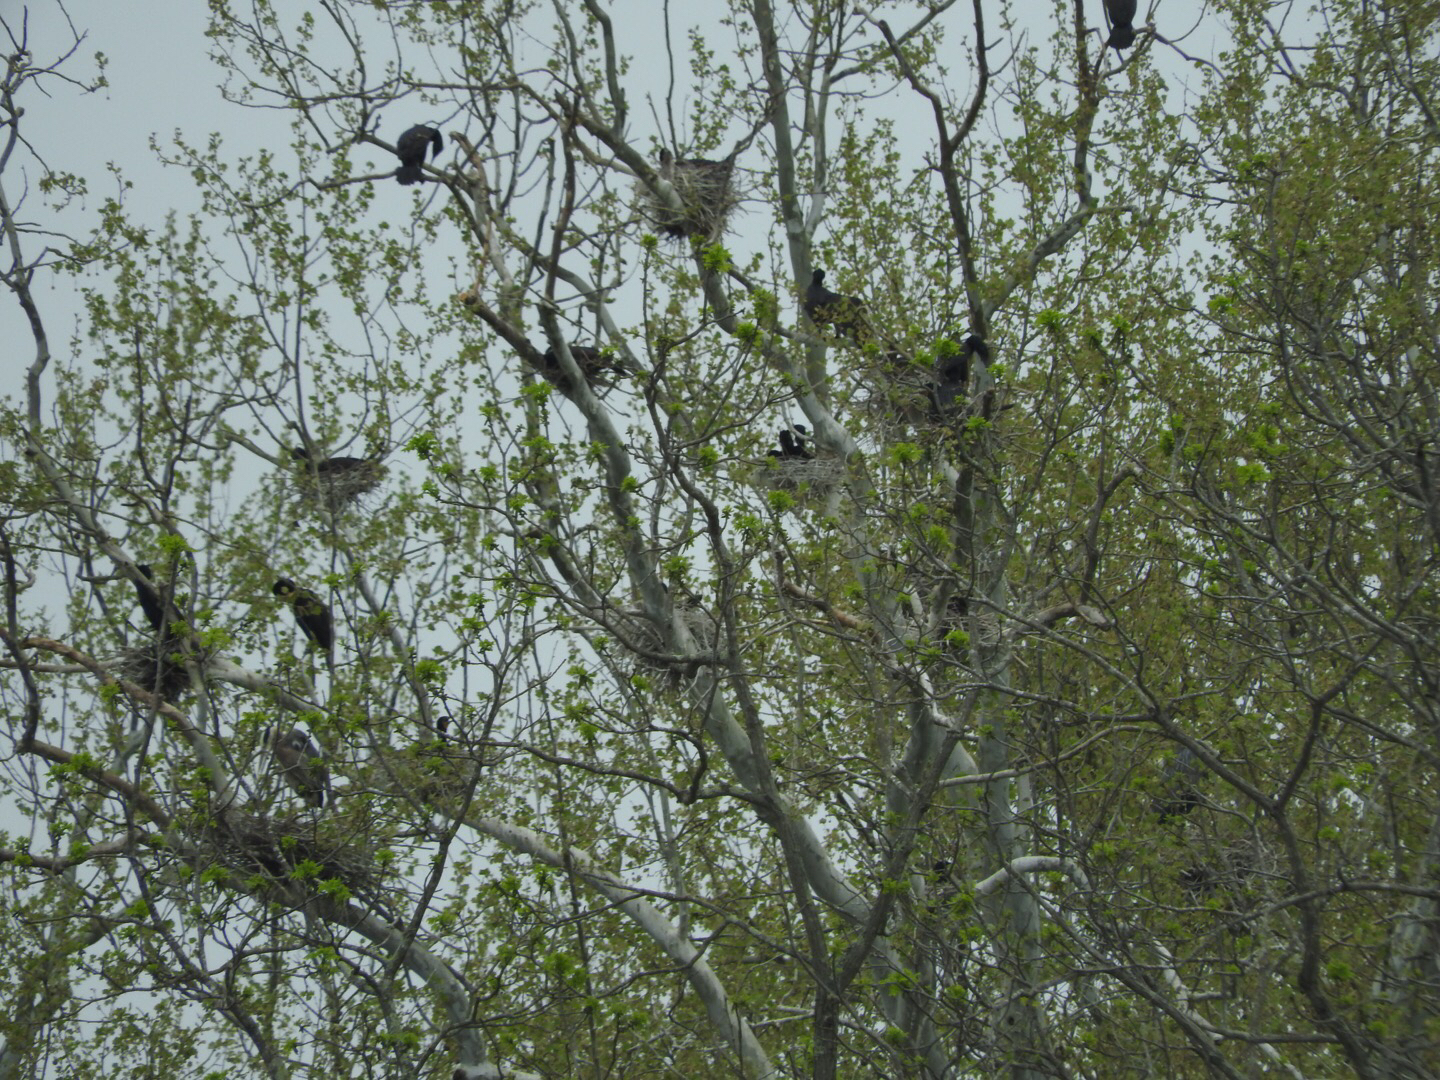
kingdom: Animalia
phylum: Chordata
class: Aves
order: Suliformes
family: Phalacrocoracidae
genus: Phalacrocorax
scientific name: Phalacrocorax auritus
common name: Double-crested cormorant
